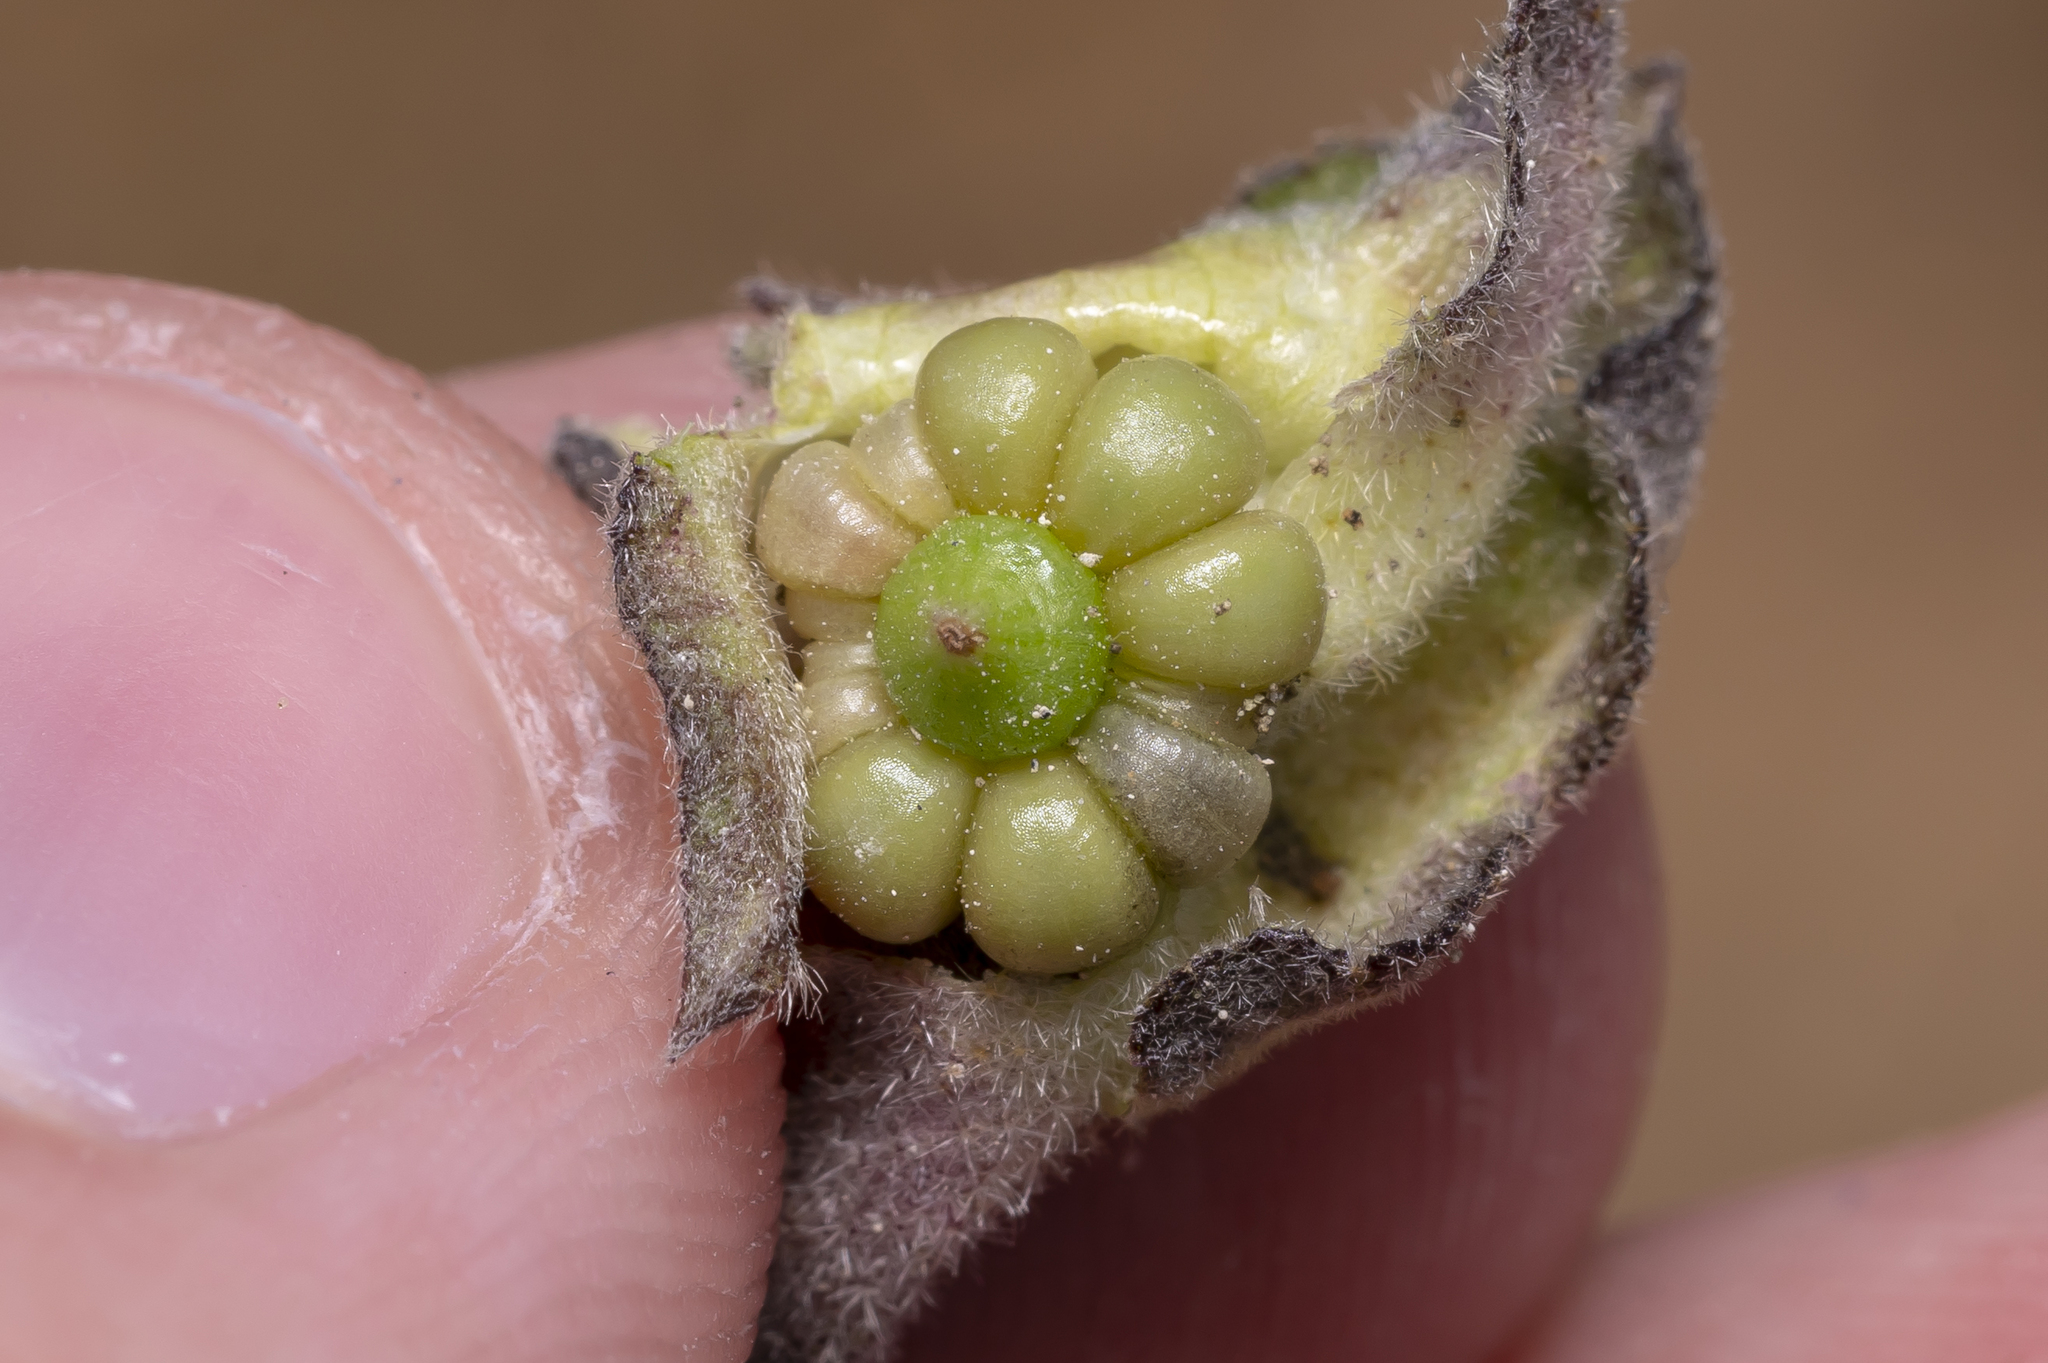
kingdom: Plantae
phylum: Tracheophyta
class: Magnoliopsida
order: Malvales
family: Malvaceae
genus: Malva
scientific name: Malva punctata
